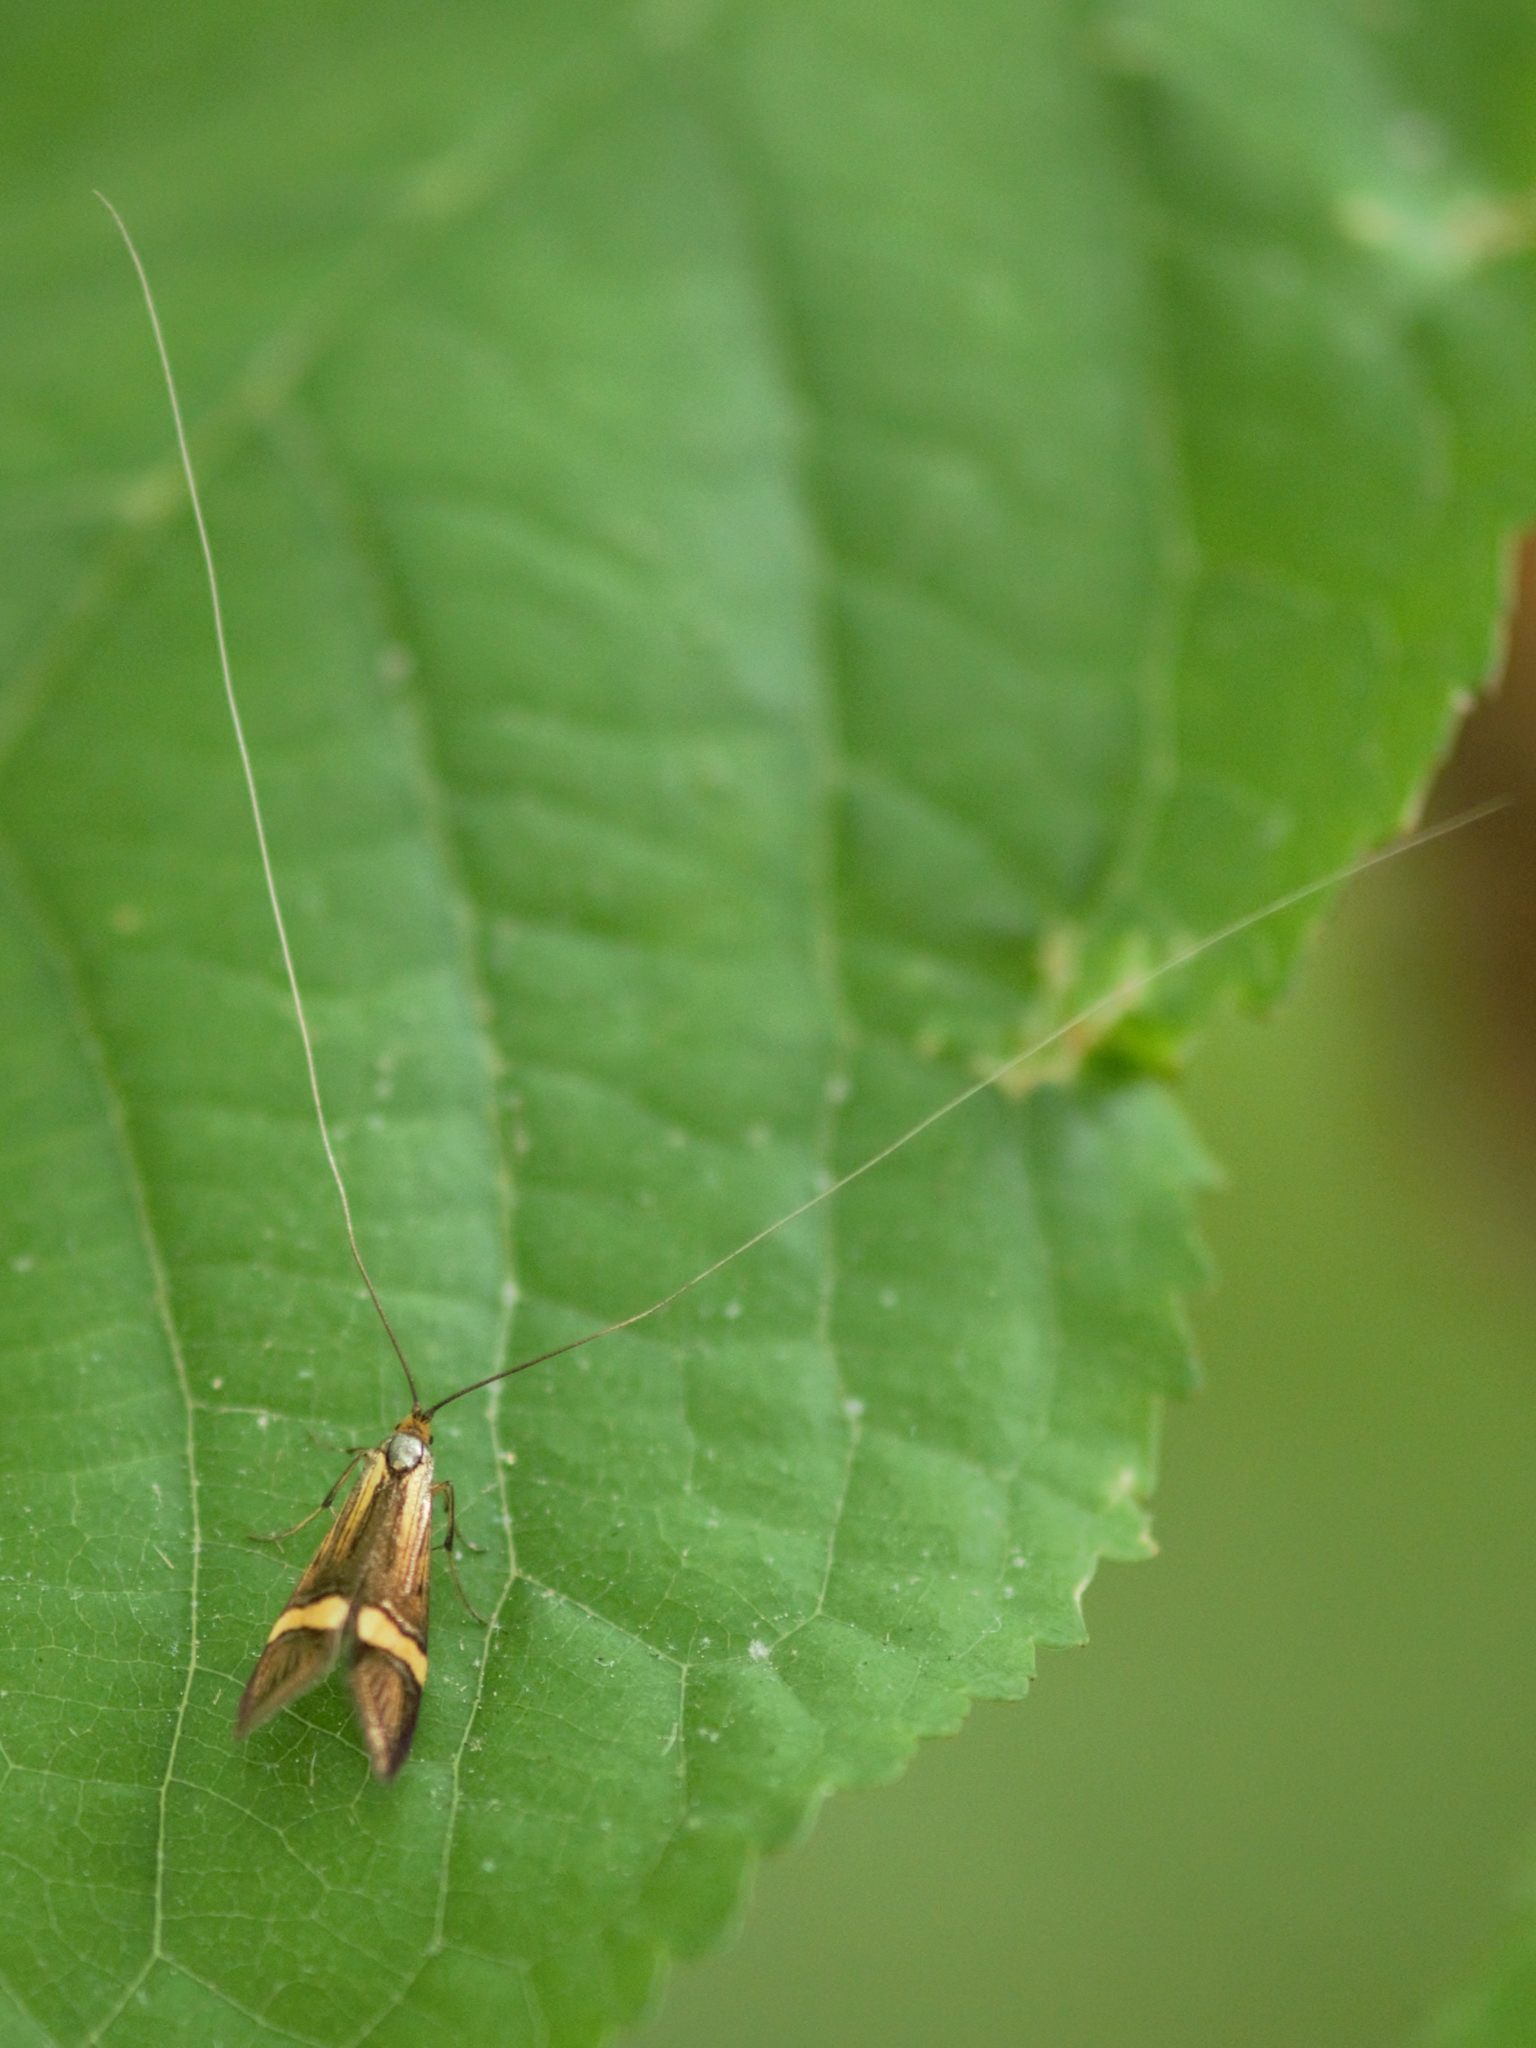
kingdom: Animalia
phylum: Arthropoda
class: Insecta
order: Lepidoptera
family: Adelidae
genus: Nemophora
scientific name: Nemophora degeerella
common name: Yellow-barred long-horn
